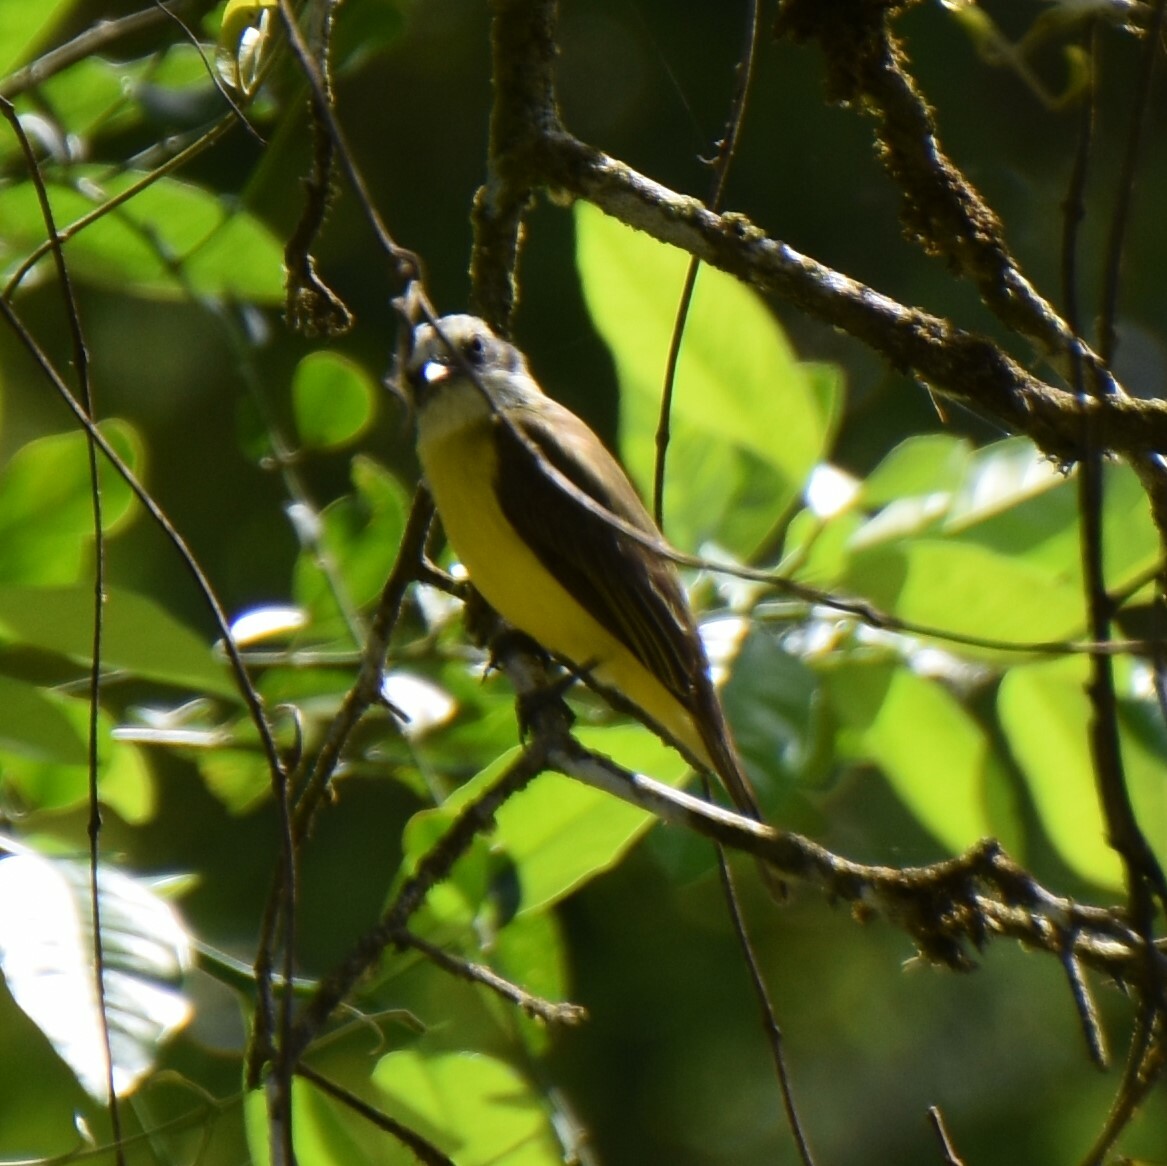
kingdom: Animalia
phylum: Chordata
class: Aves
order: Passeriformes
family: Tyrannidae
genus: Myiozetetes
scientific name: Myiozetetes granadensis
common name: Gray-capped flycatcher
